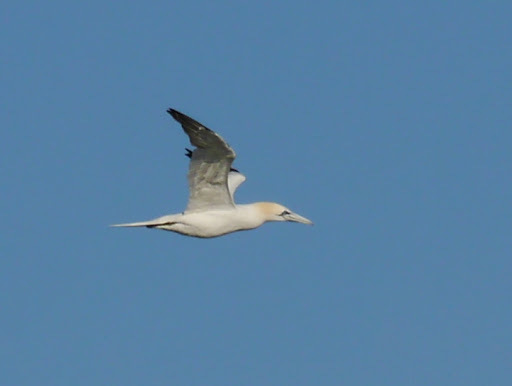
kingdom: Animalia
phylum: Chordata
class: Aves
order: Suliformes
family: Sulidae
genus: Morus
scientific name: Morus bassanus
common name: Northern gannet
